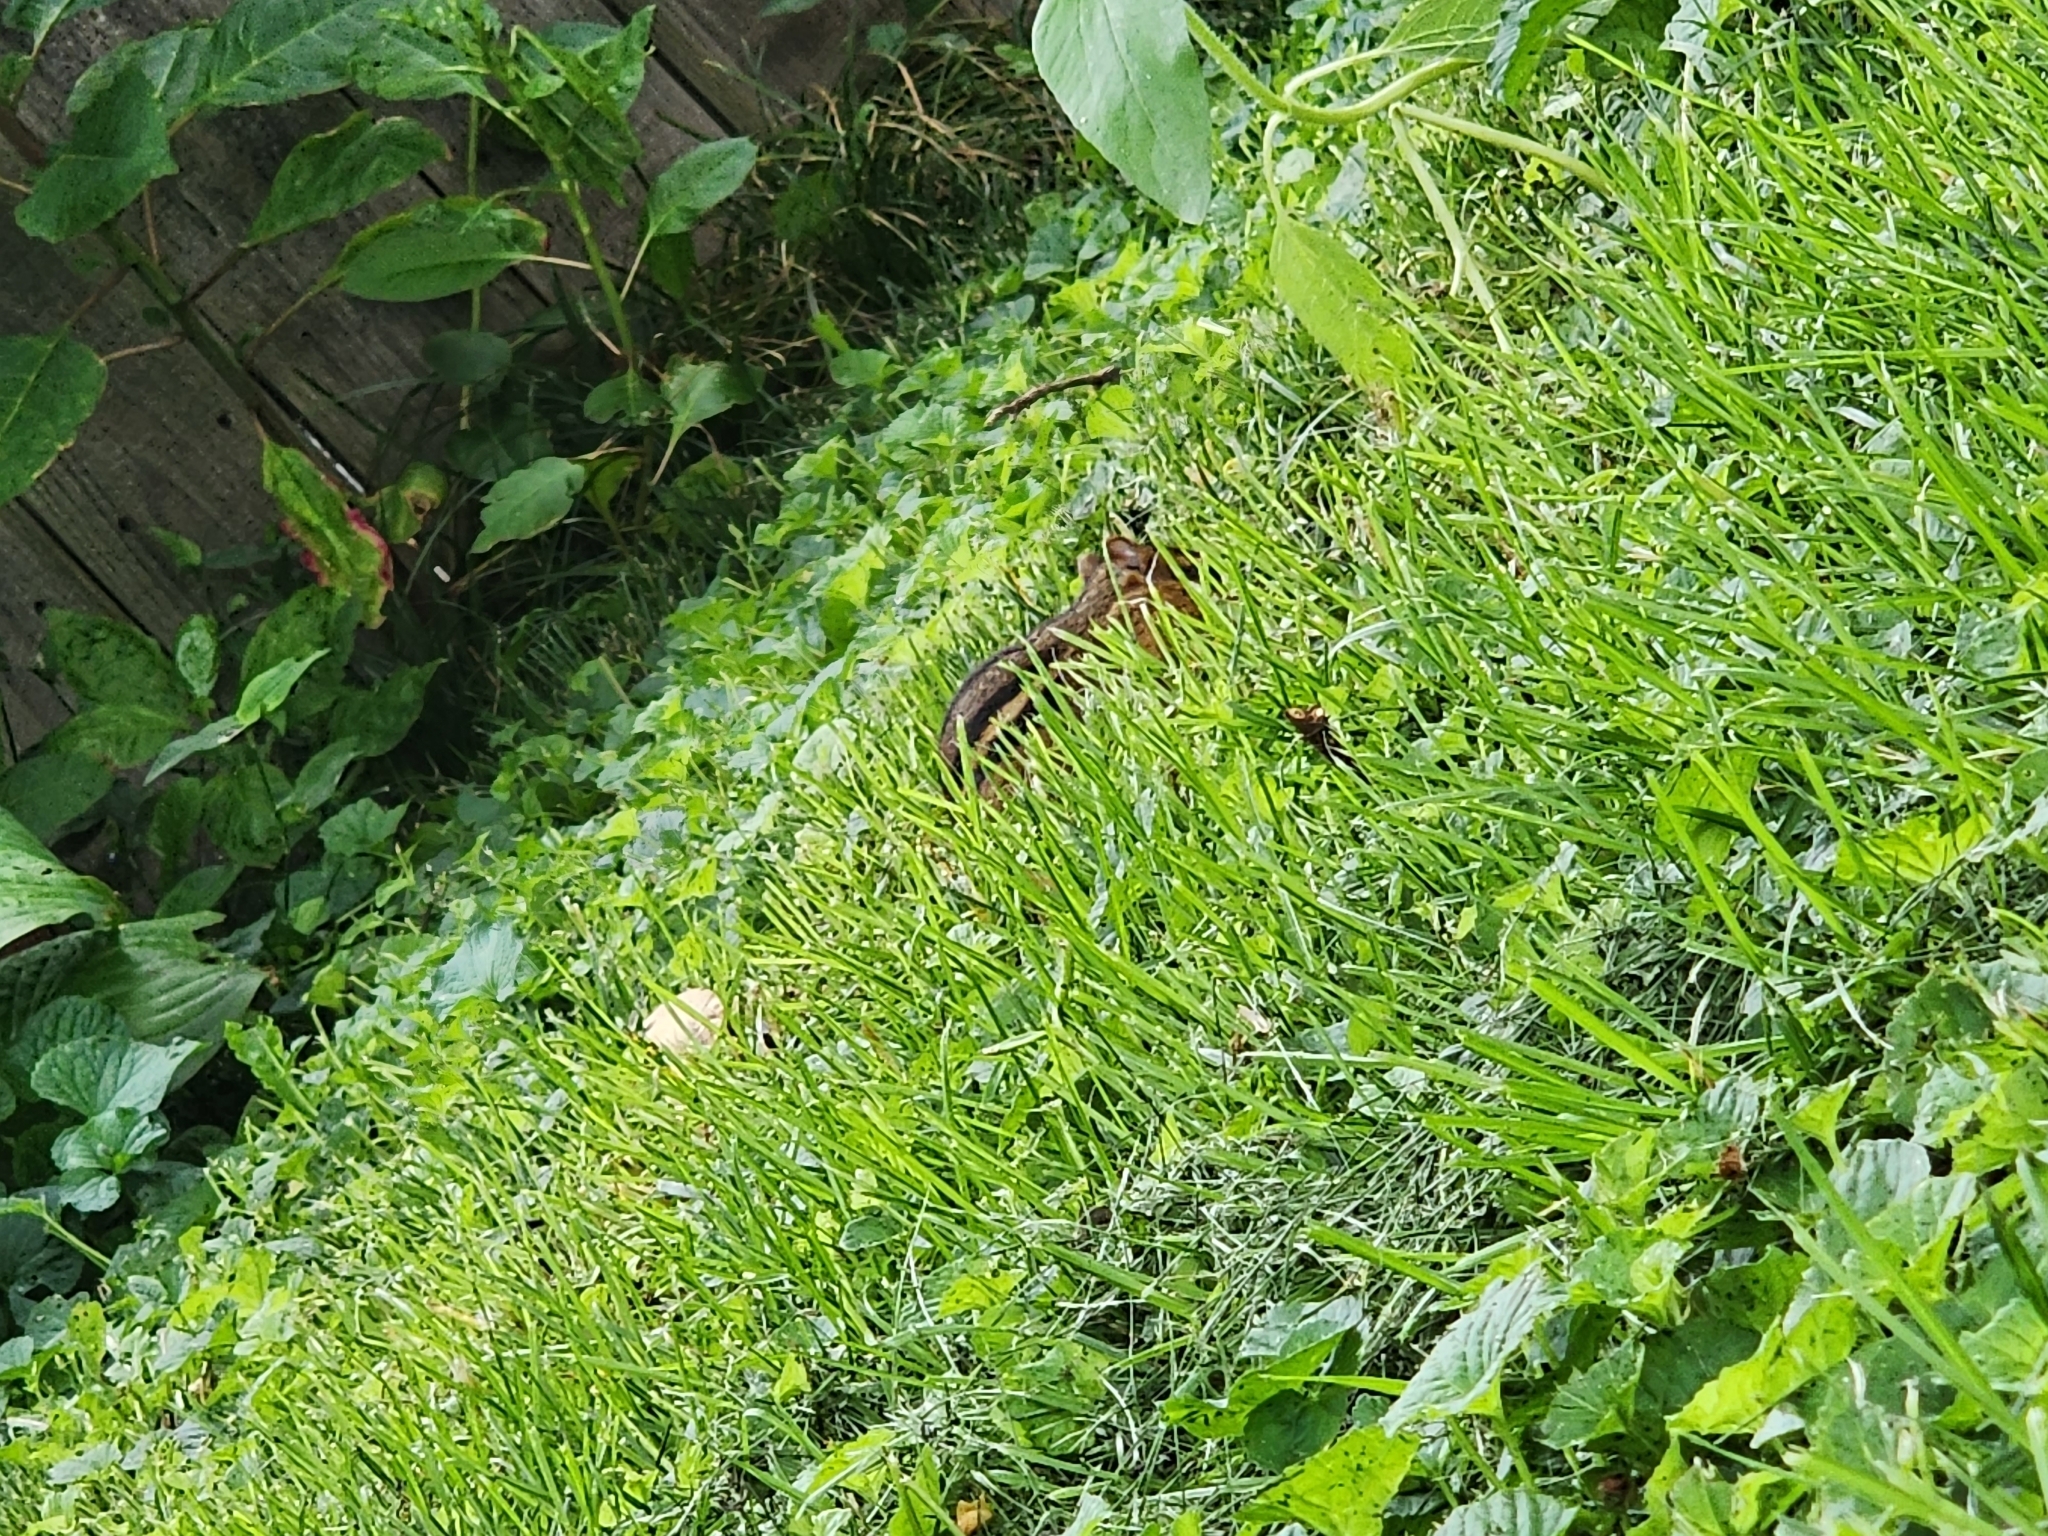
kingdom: Animalia
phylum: Chordata
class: Mammalia
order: Rodentia
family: Sciuridae
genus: Tamias
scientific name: Tamias striatus
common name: Eastern chipmunk
